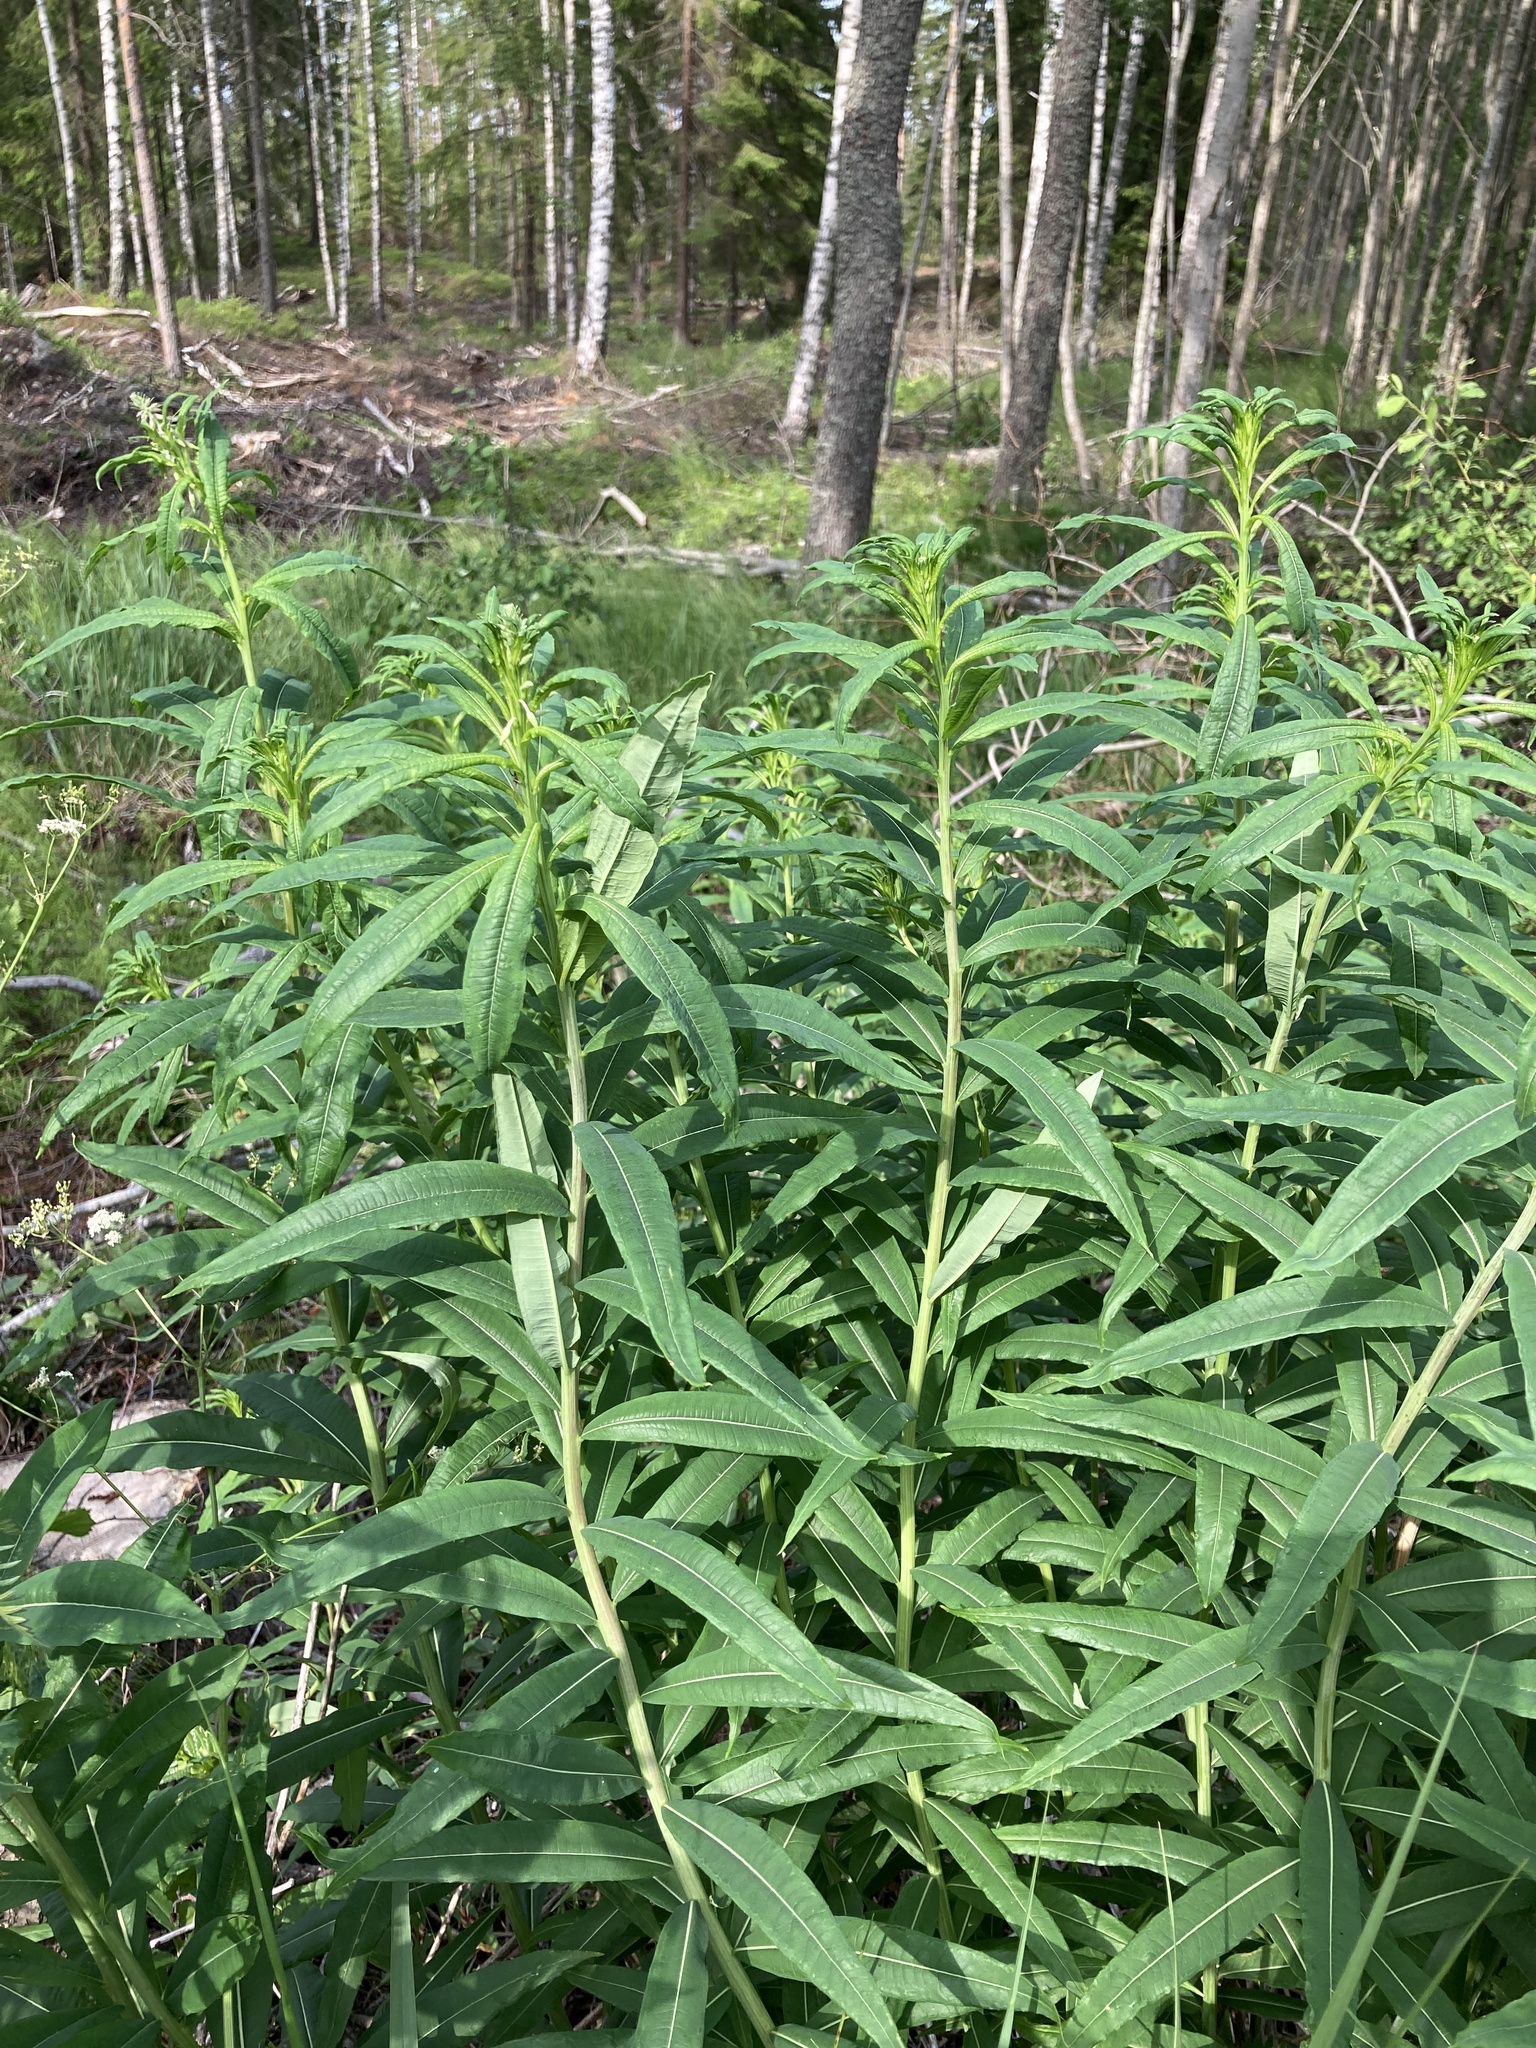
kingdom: Plantae
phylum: Tracheophyta
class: Magnoliopsida
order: Myrtales
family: Onagraceae
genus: Chamaenerion
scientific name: Chamaenerion angustifolium
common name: Fireweed
